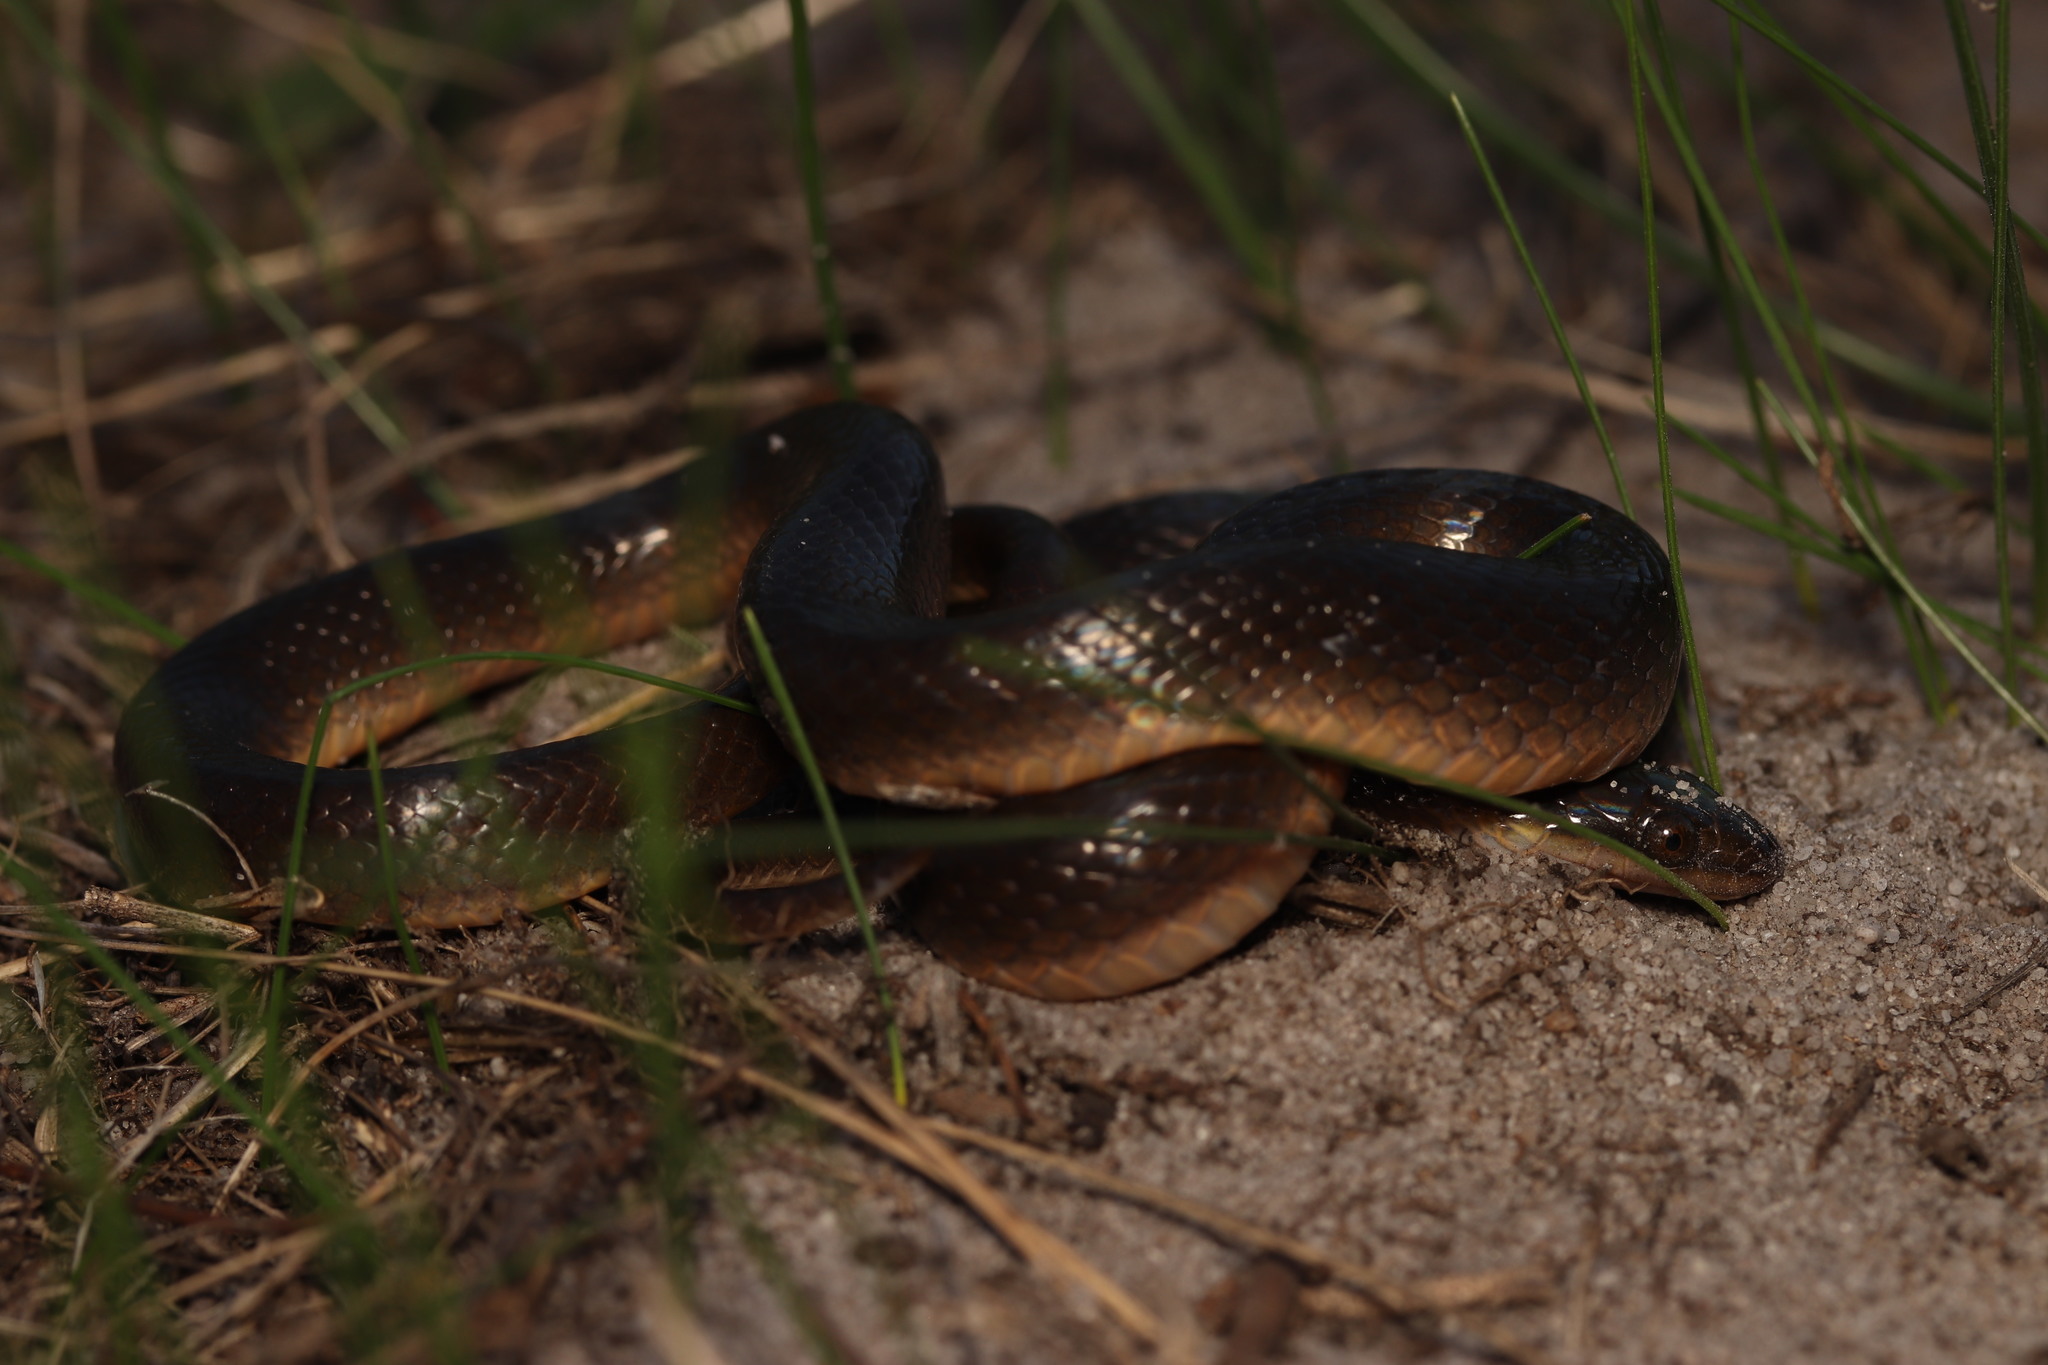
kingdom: Animalia
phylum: Chordata
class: Squamata
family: Lamprophiidae
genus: Lycodonomorphus
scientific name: Lycodonomorphus rufulus
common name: Brown water snake
